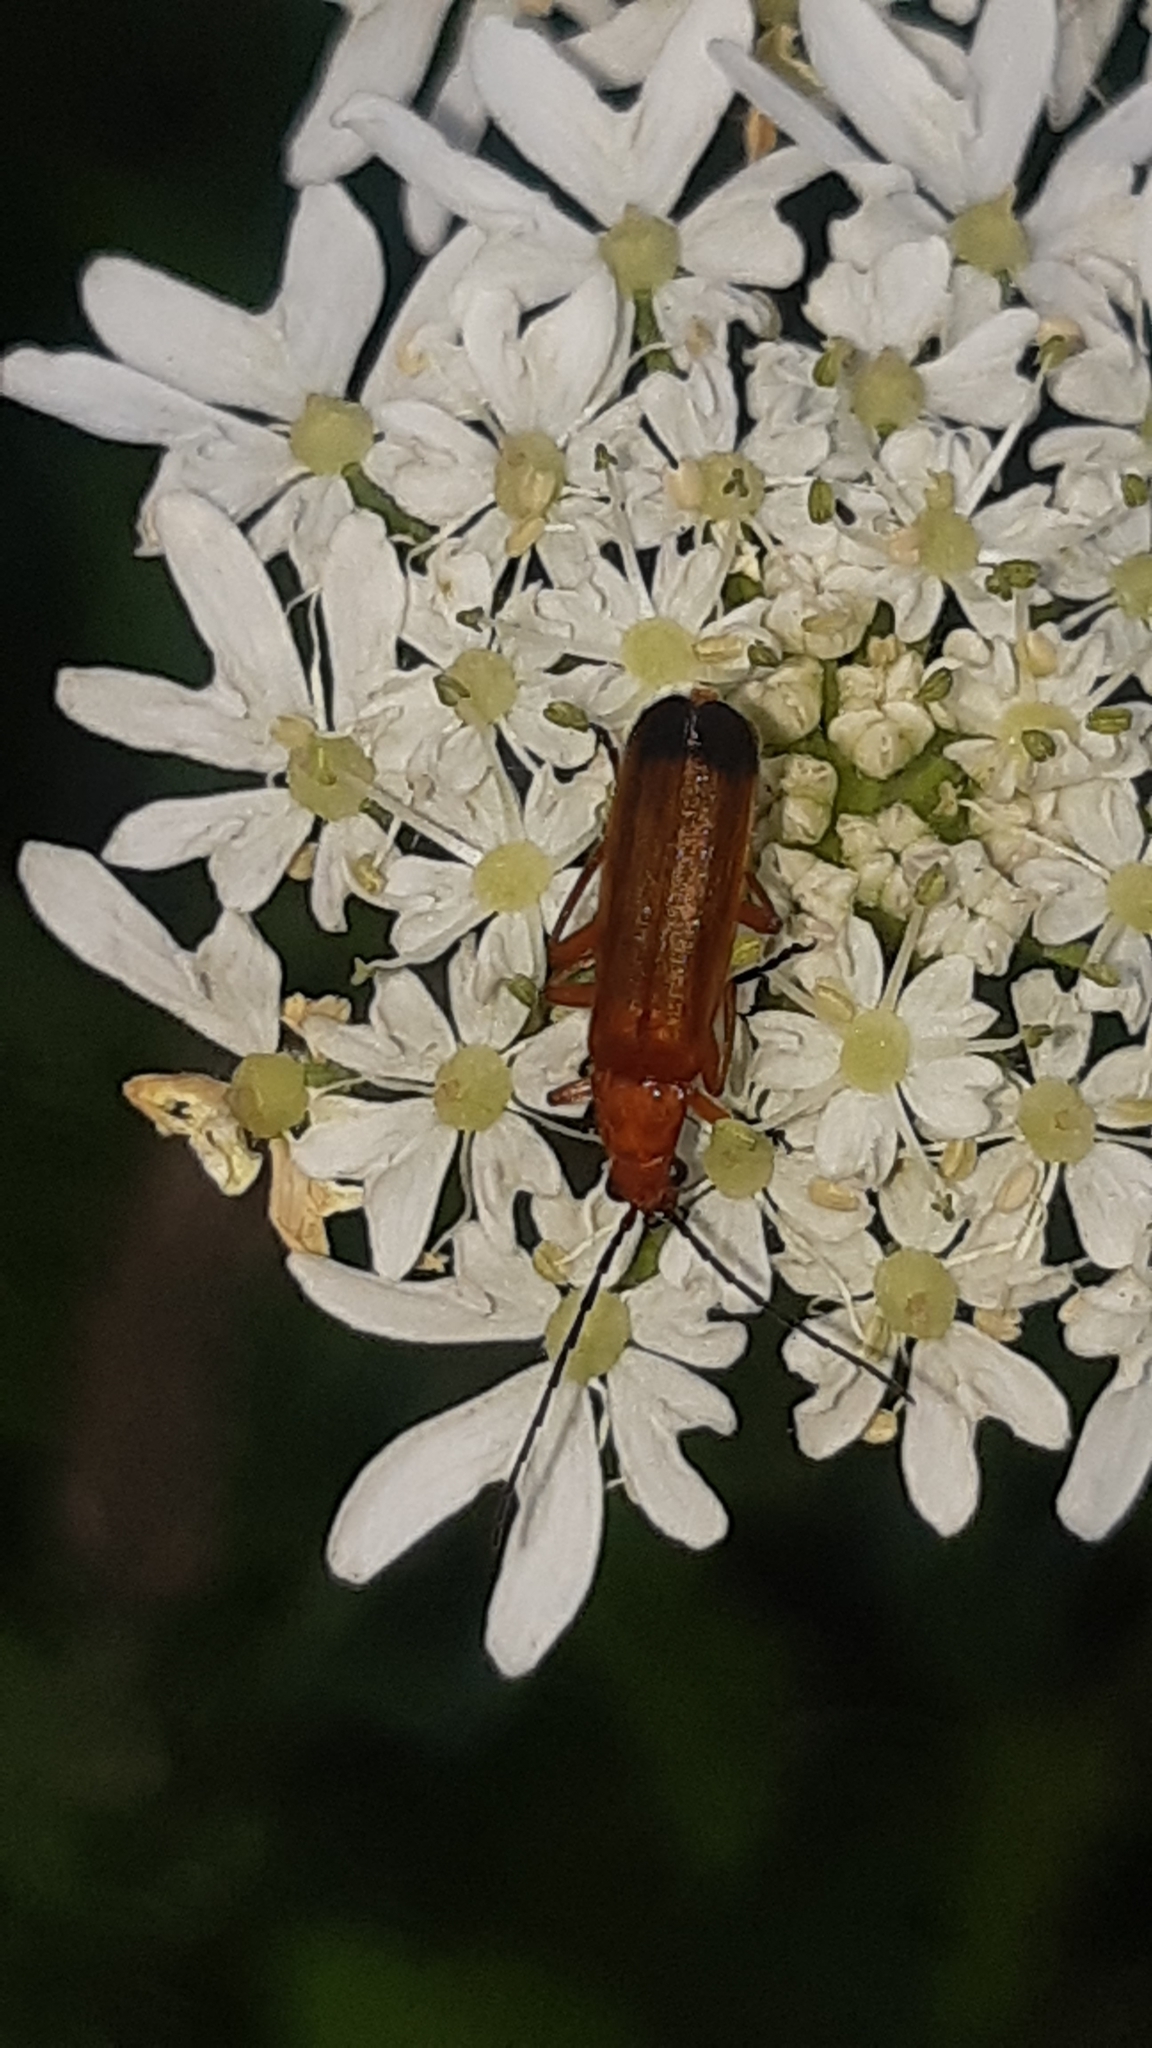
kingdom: Animalia
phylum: Arthropoda
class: Insecta
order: Coleoptera
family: Cantharidae
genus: Rhagonycha
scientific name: Rhagonycha fulva
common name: Common red soldier beetle
